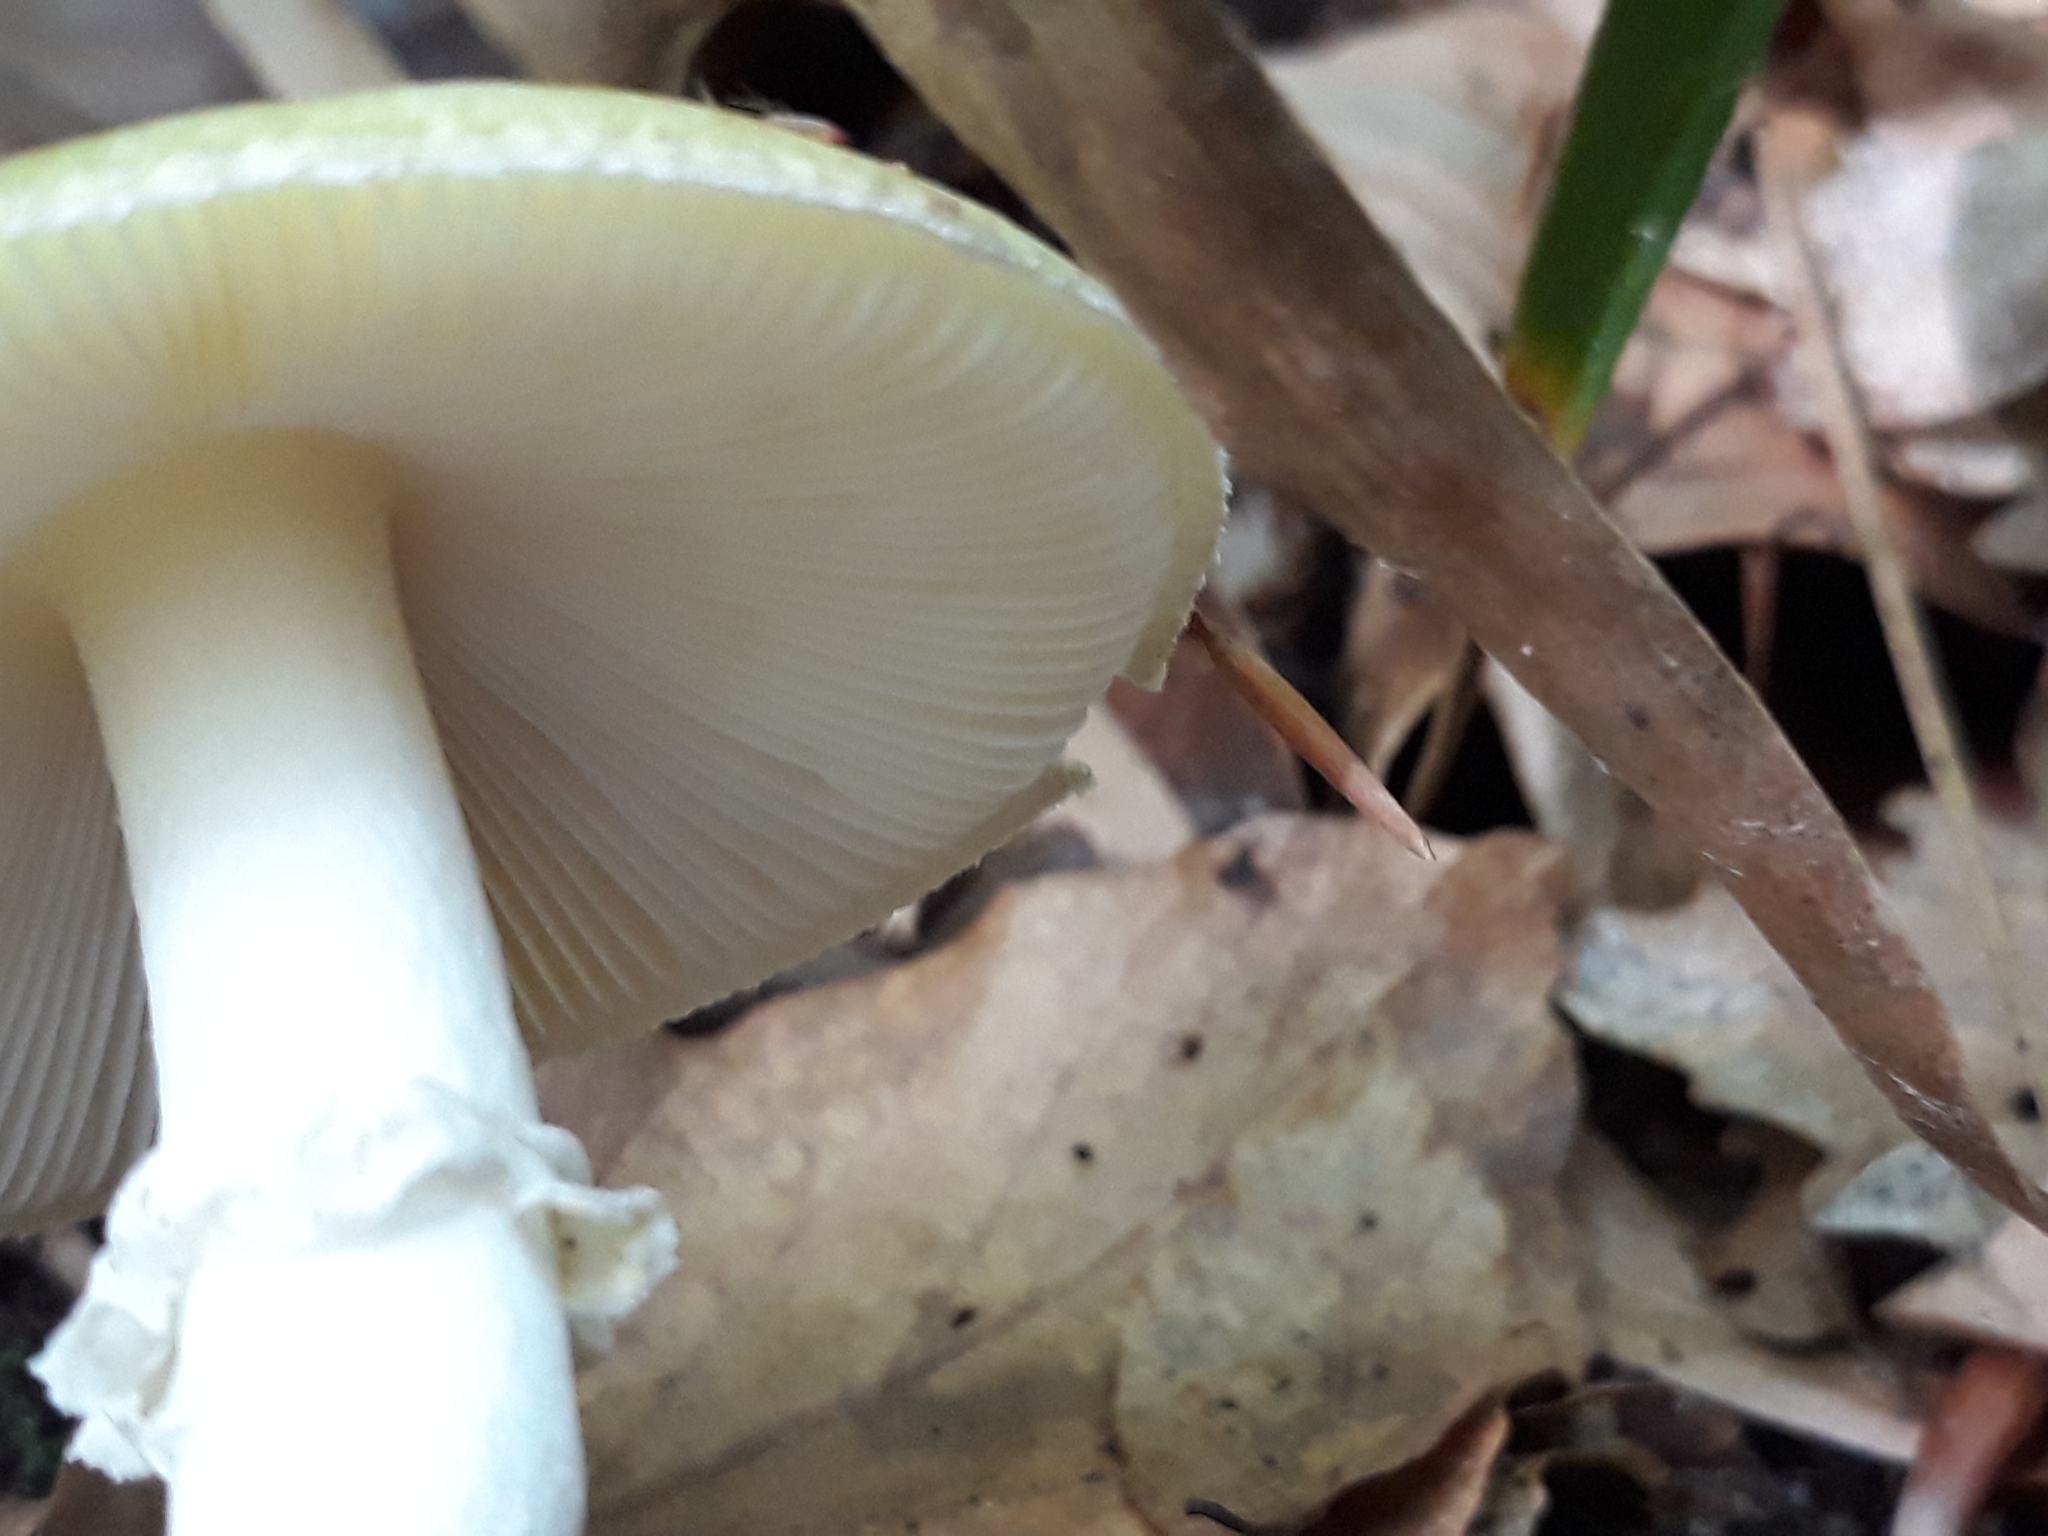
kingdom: Fungi
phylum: Basidiomycota
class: Agaricomycetes
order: Agaricales
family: Amanitaceae
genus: Amanita
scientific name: Amanita phalloides
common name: Death cap
